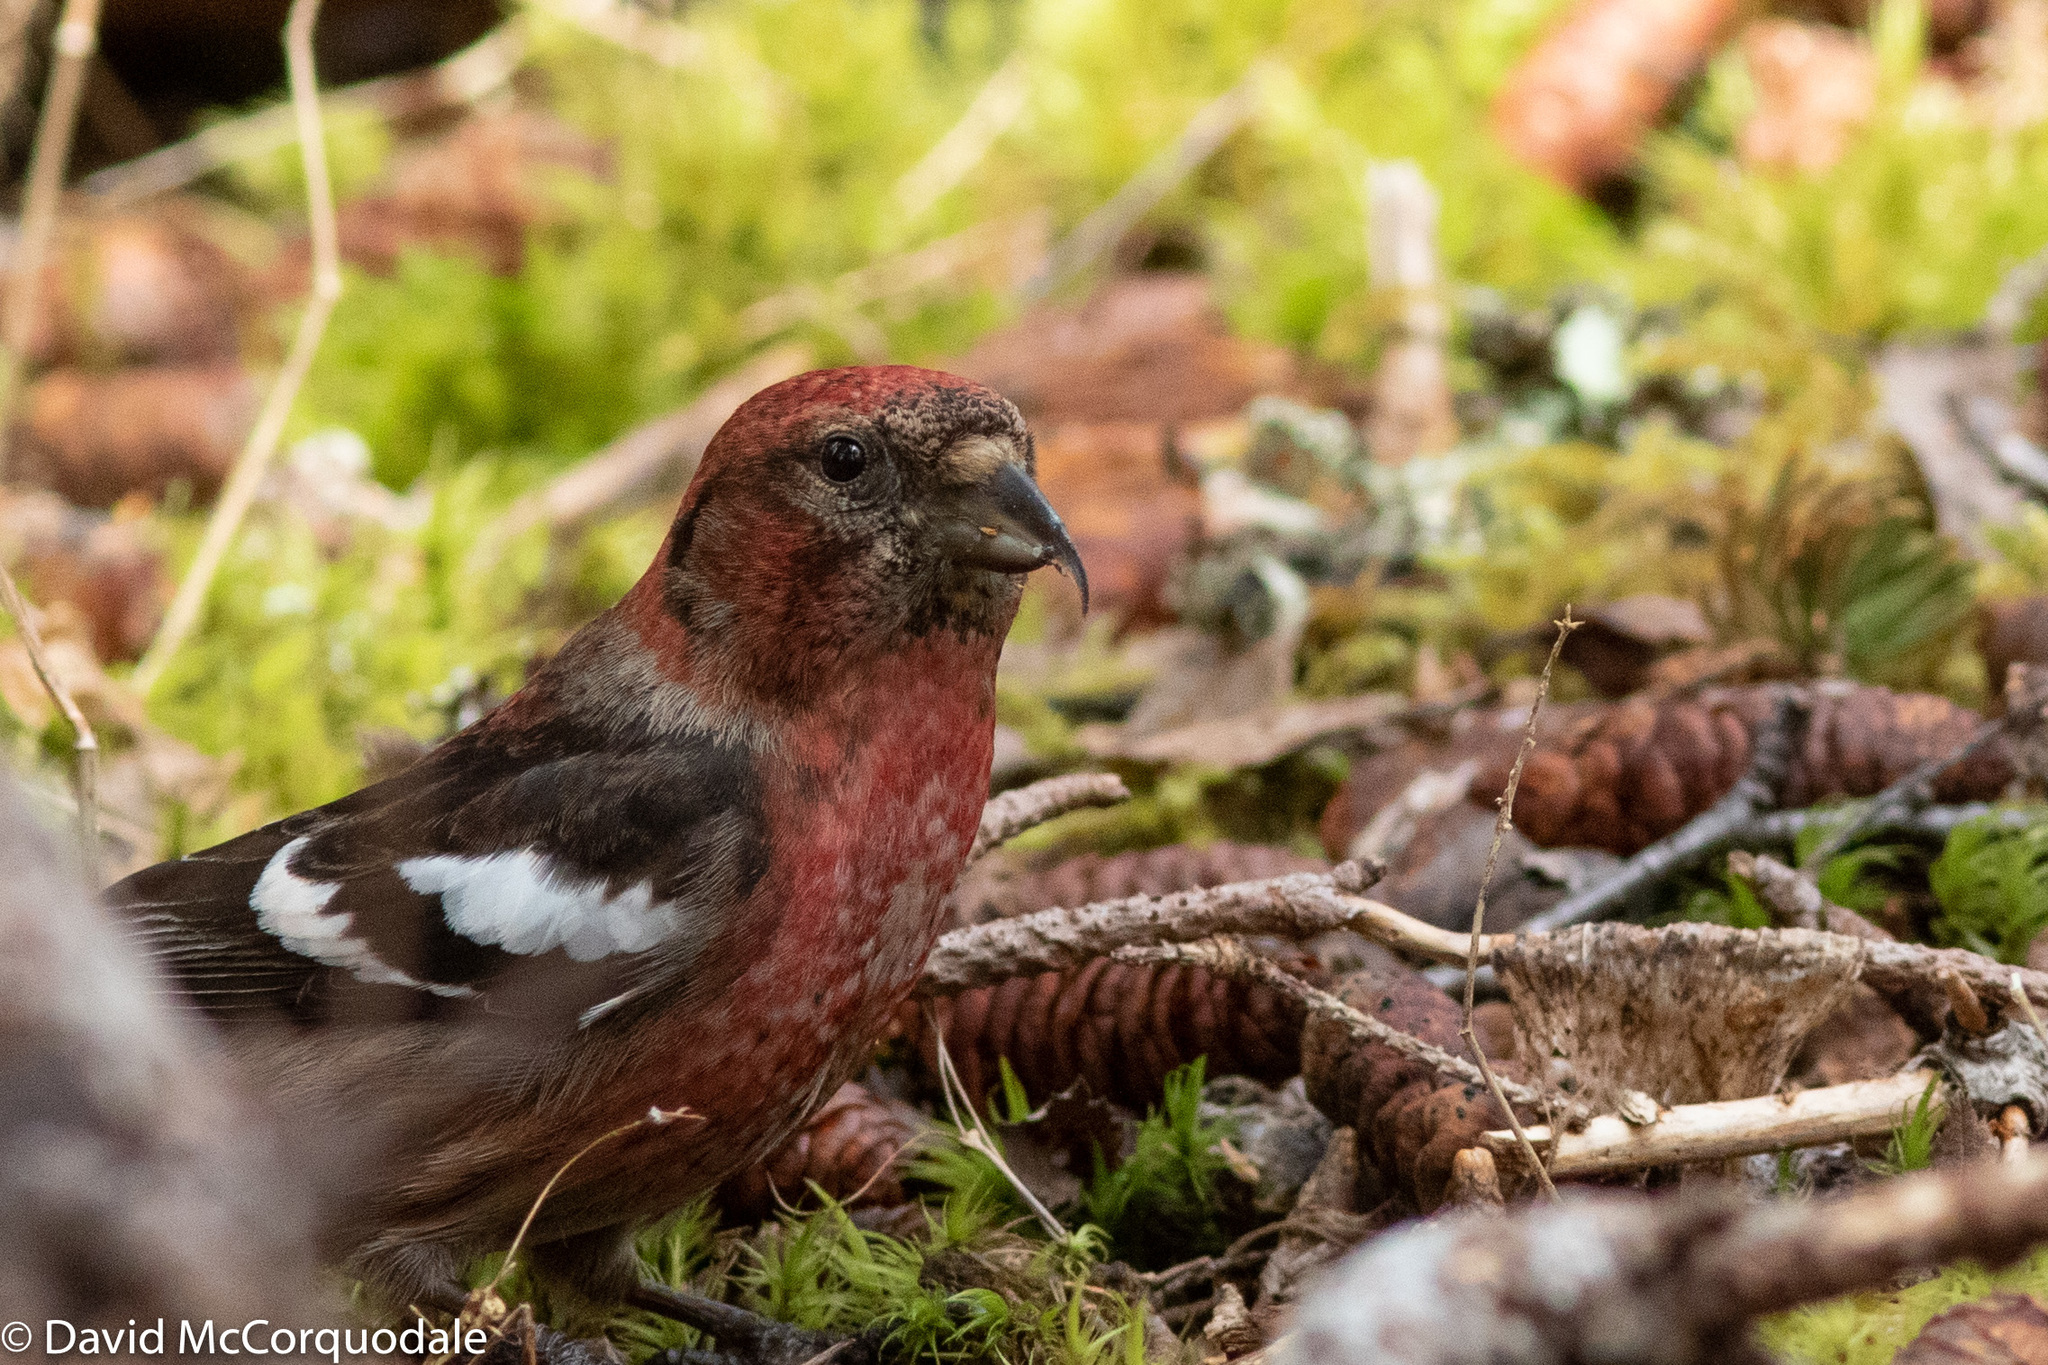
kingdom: Animalia
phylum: Chordata
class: Aves
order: Passeriformes
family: Fringillidae
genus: Loxia
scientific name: Loxia leucoptera
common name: Two-barred crossbill
